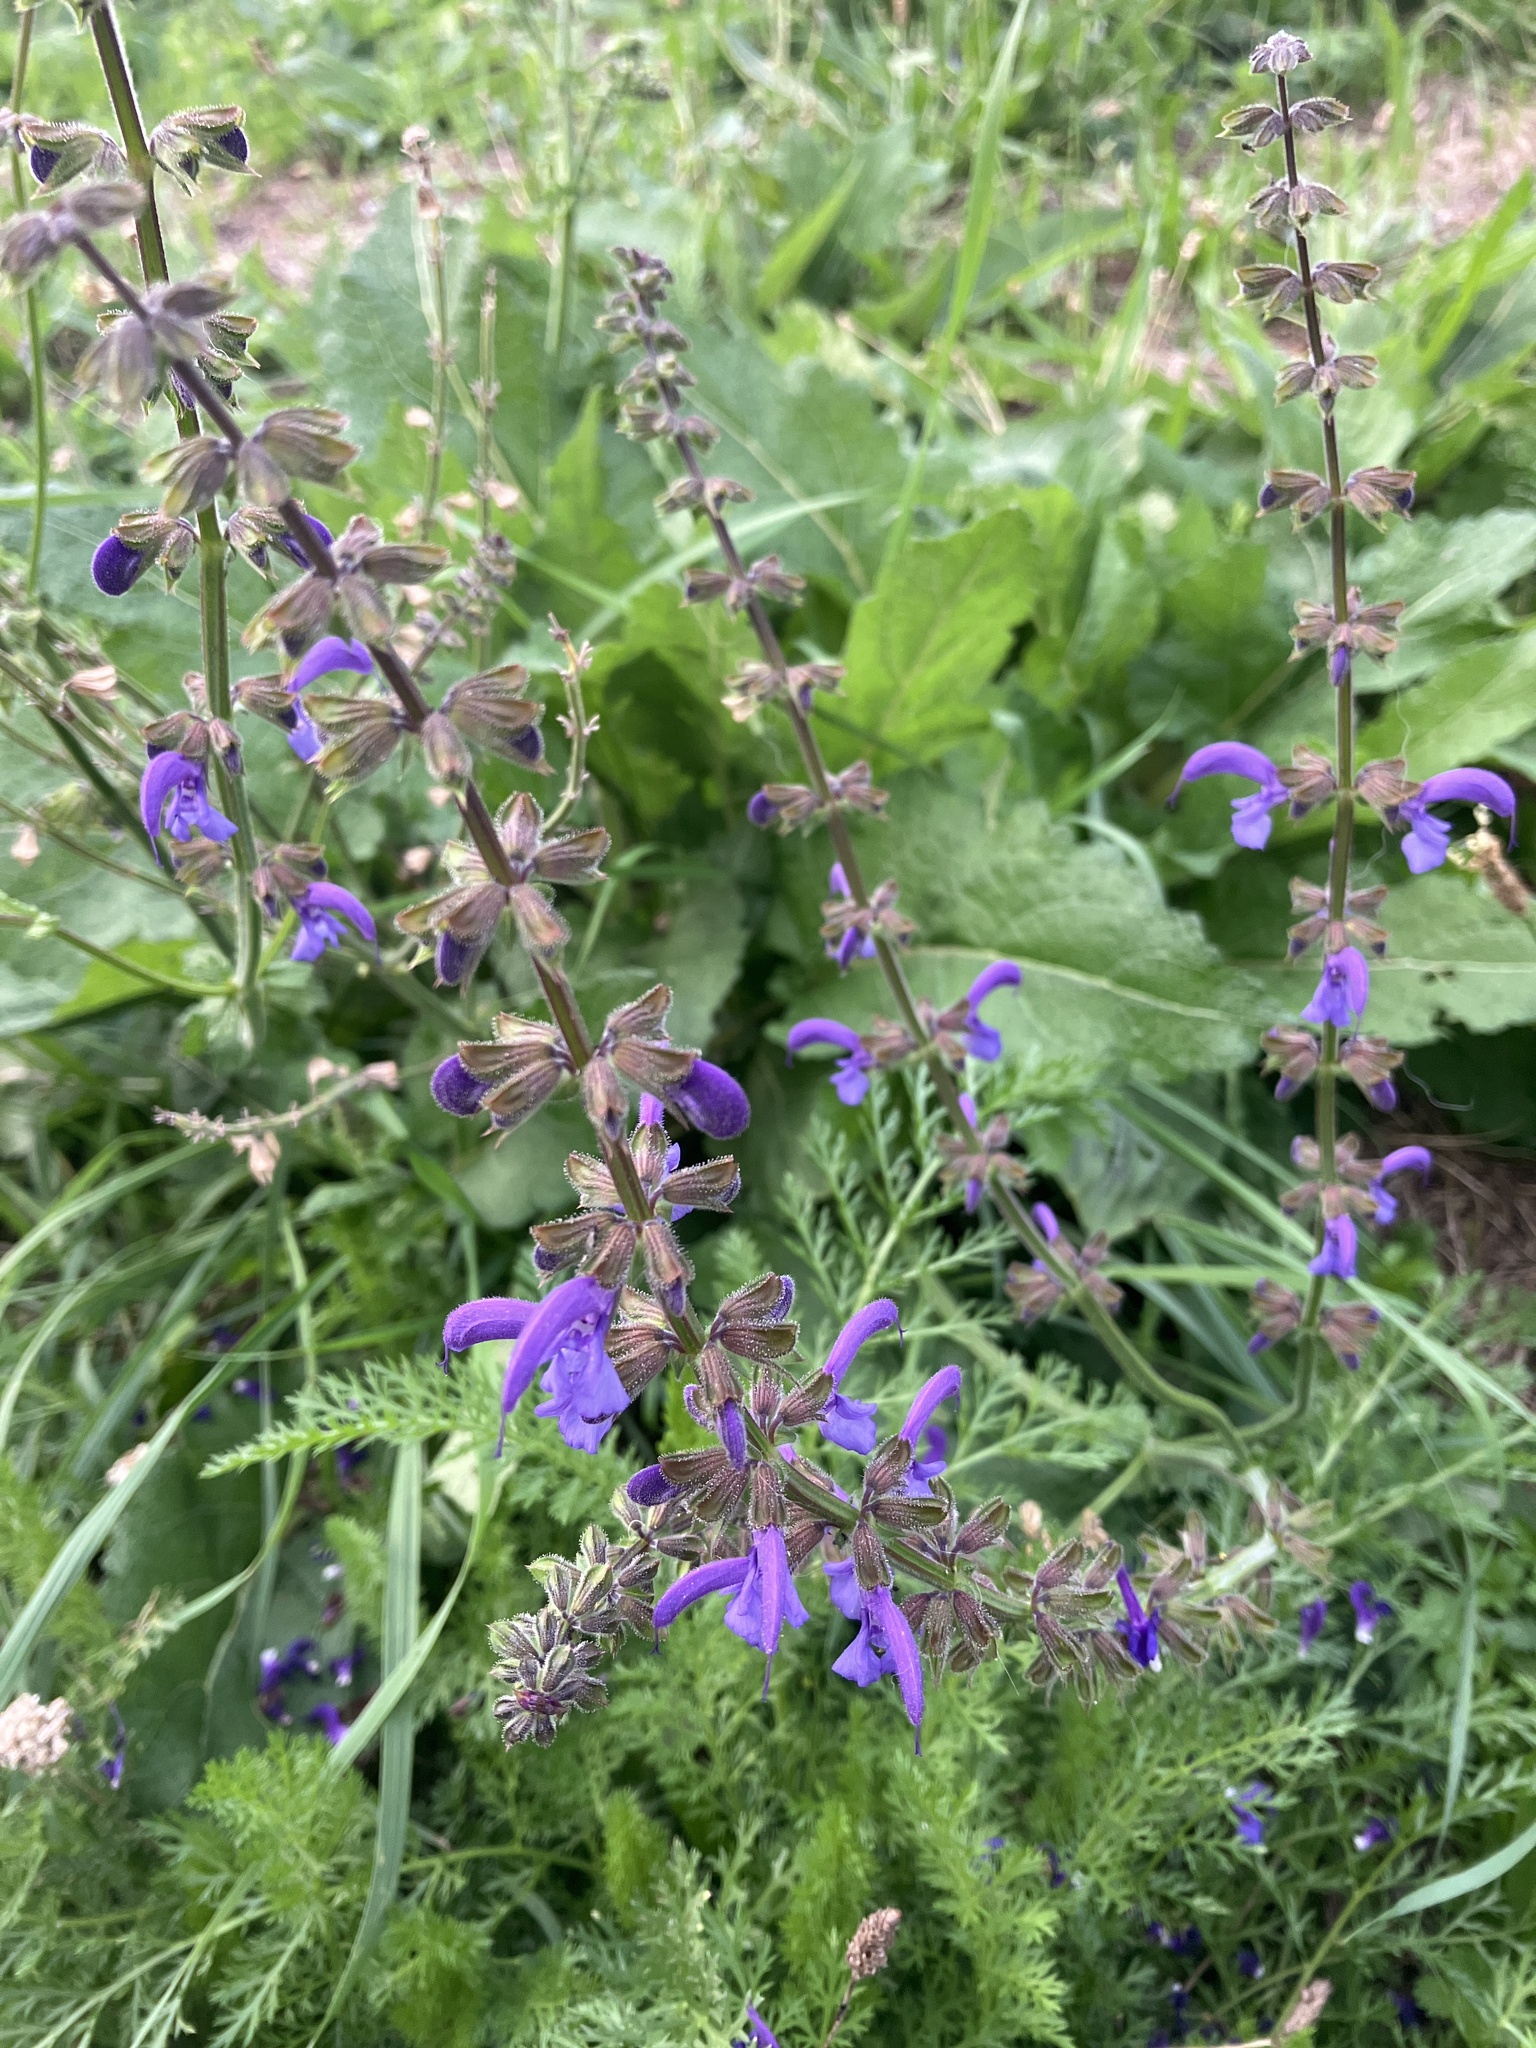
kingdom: Plantae
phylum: Tracheophyta
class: Magnoliopsida
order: Lamiales
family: Lamiaceae
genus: Salvia
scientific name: Salvia pratensis
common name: Meadow sage
